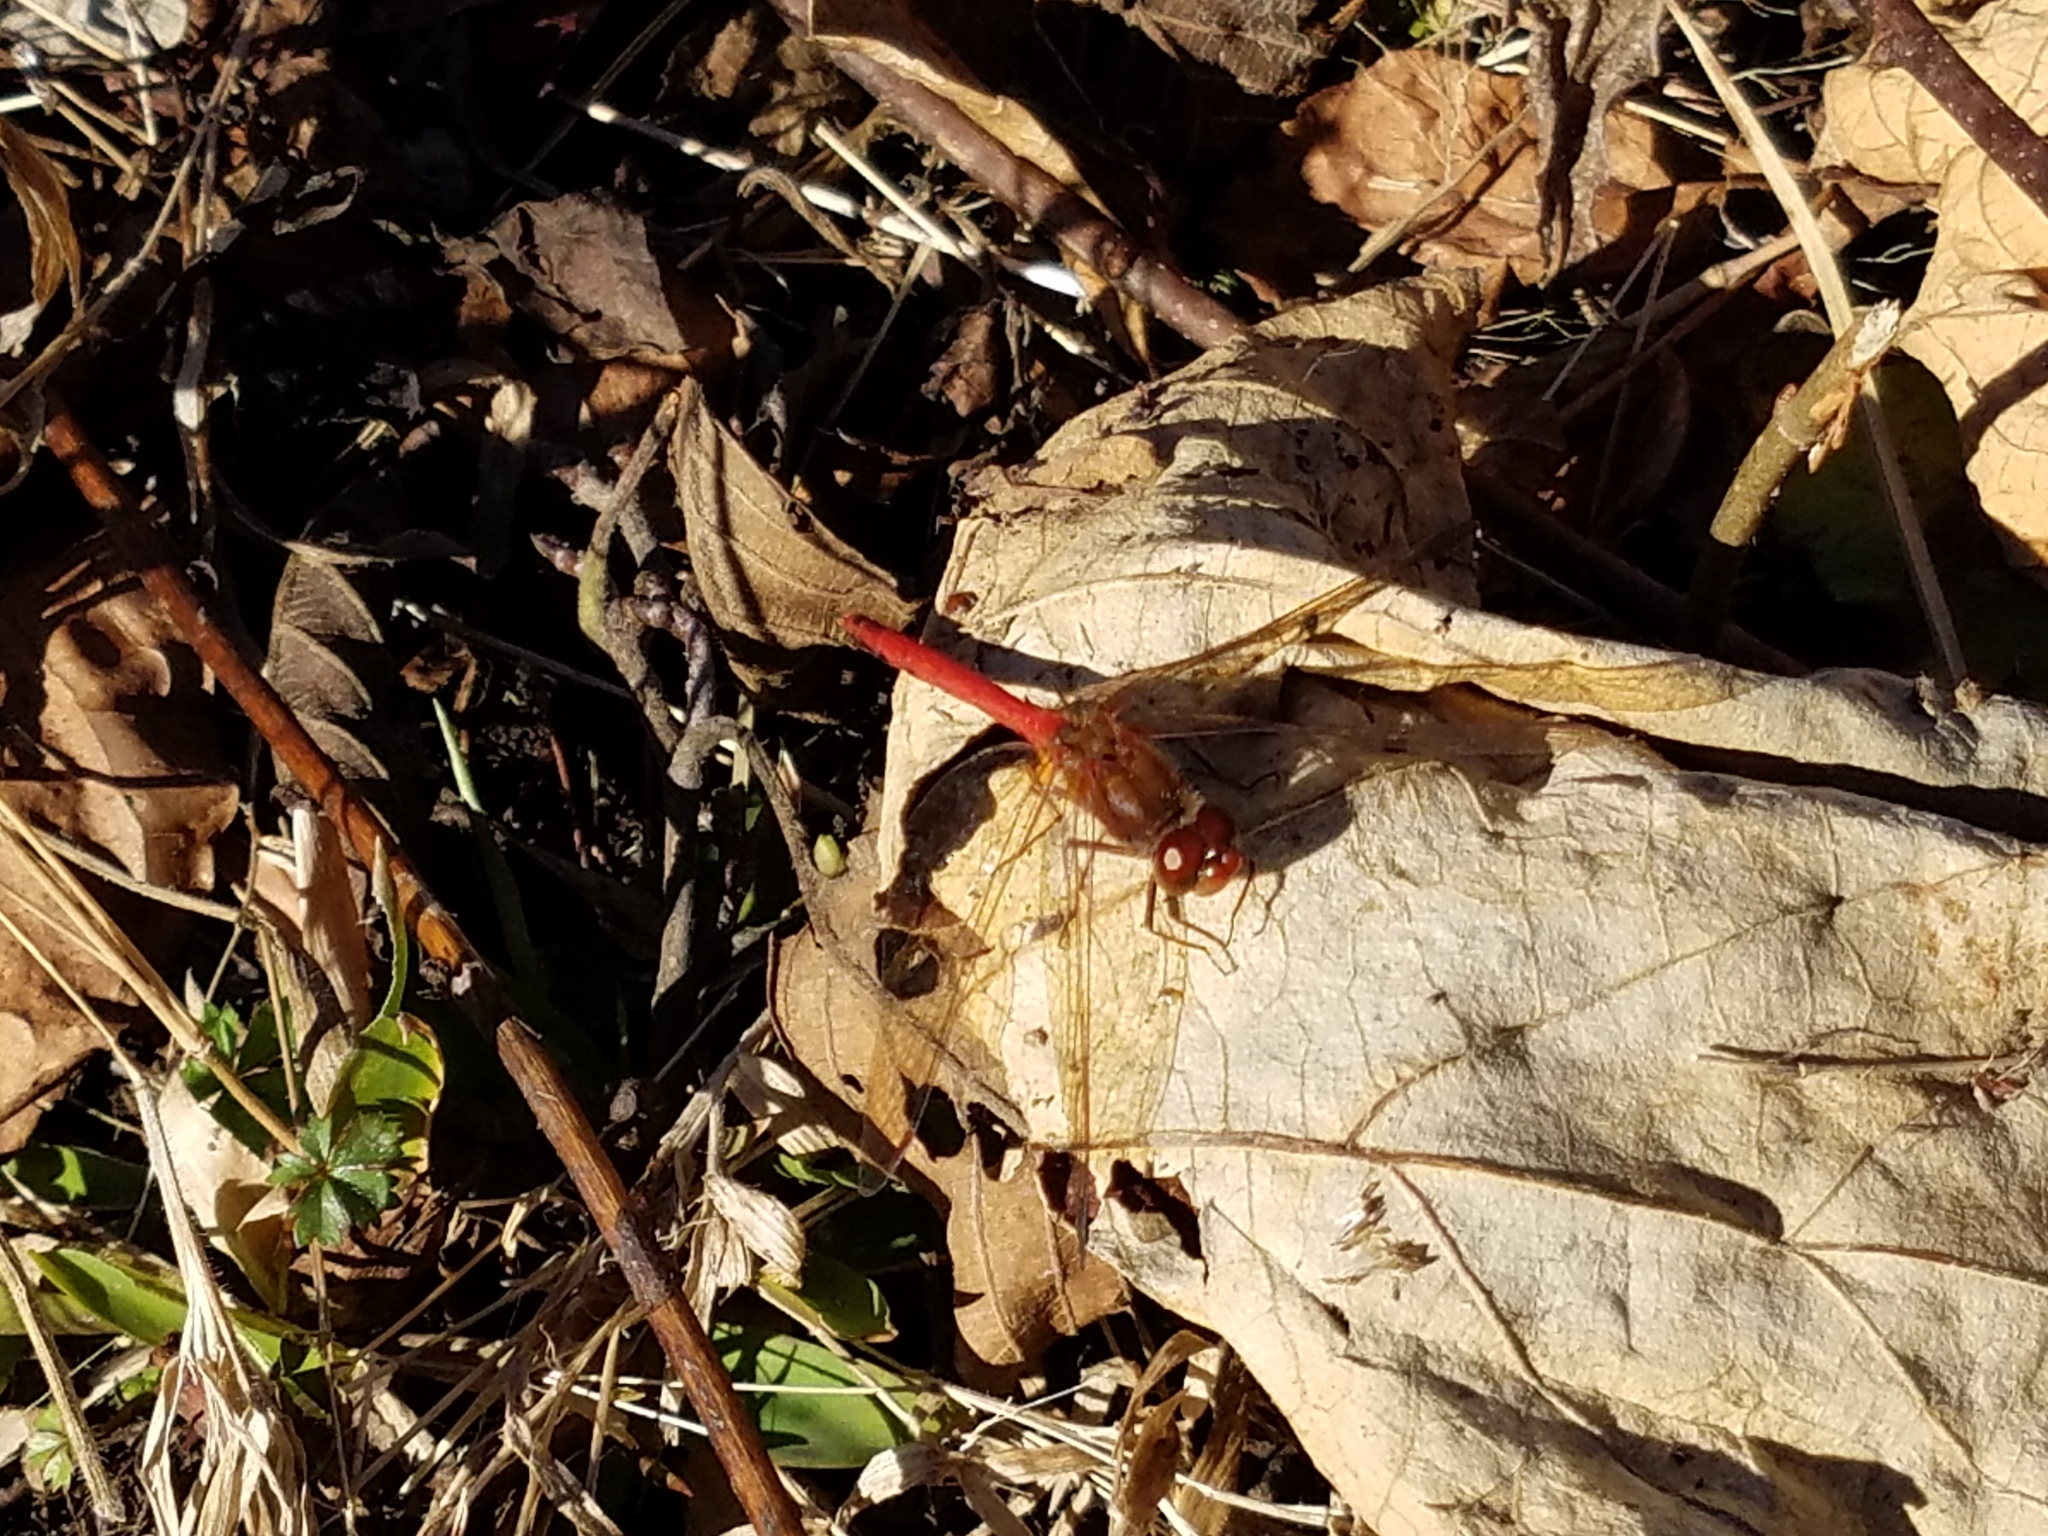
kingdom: Animalia
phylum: Arthropoda
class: Insecta
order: Odonata
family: Libellulidae
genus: Sympetrum
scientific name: Sympetrum vicinum
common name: Autumn meadowhawk
